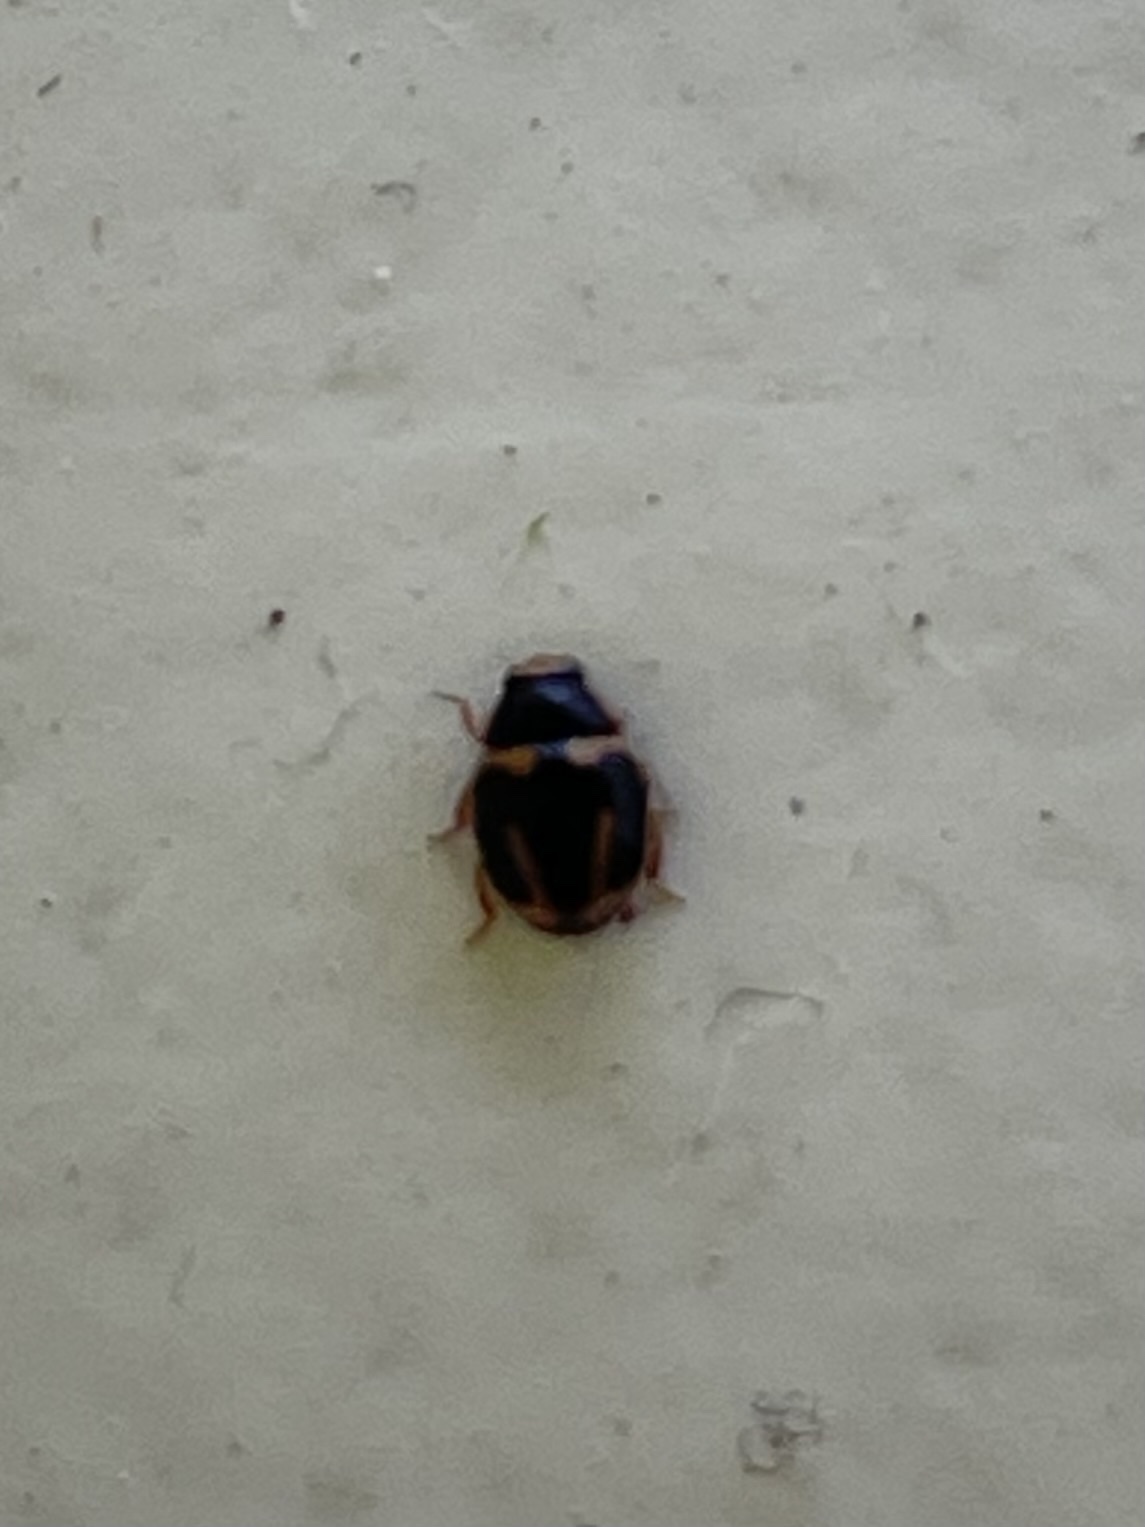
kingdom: Animalia
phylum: Arthropoda
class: Insecta
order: Coleoptera
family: Coccinellidae
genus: Hyperaspis
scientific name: Hyperaspis trifurcata
